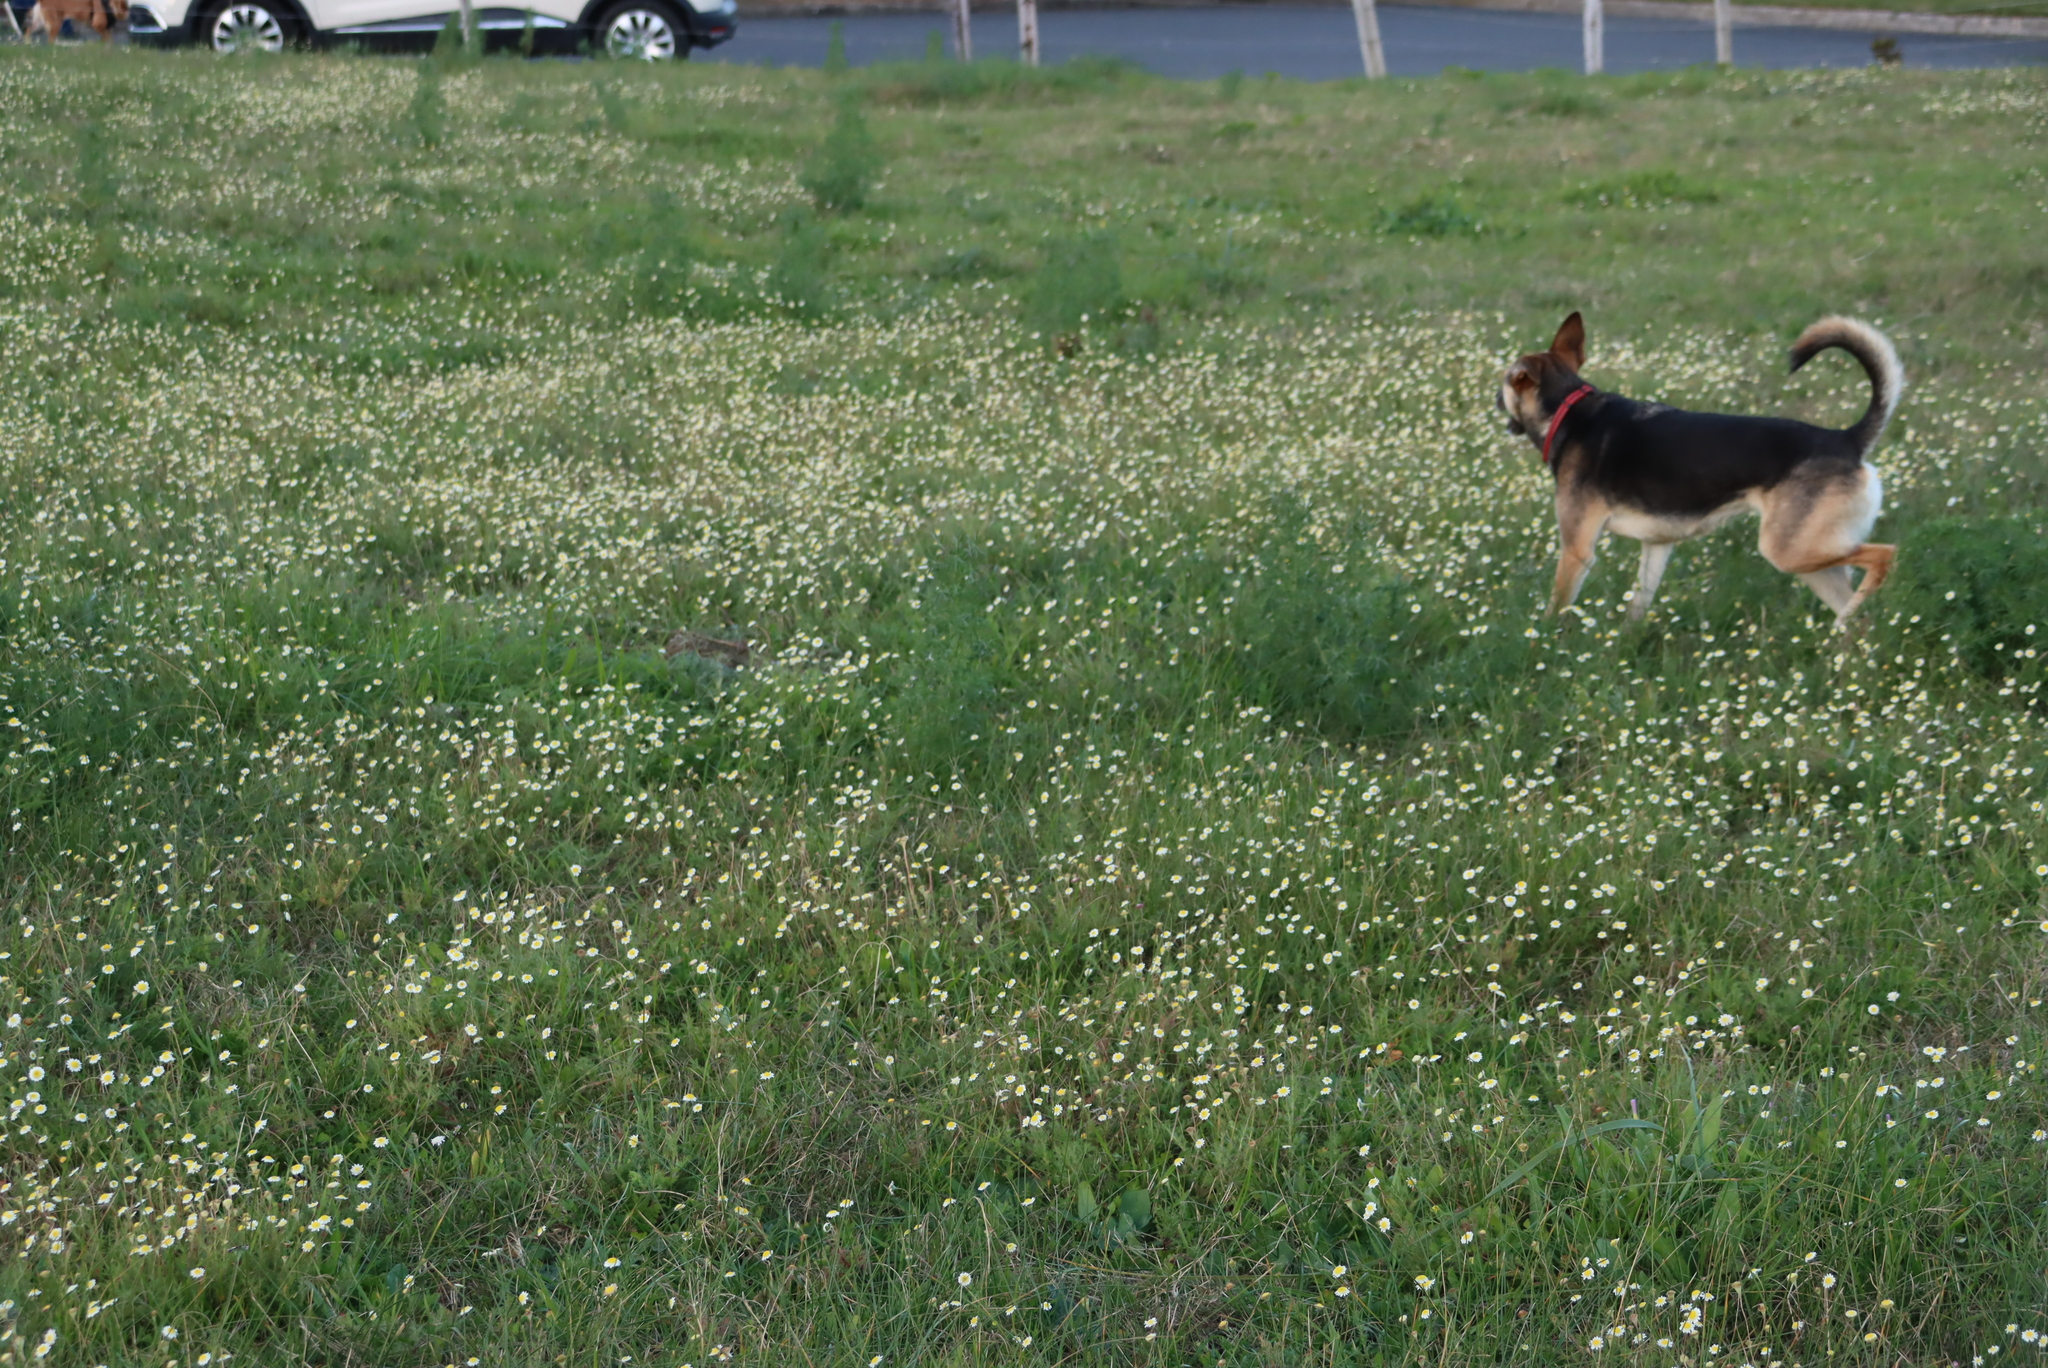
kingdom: Plantae
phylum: Tracheophyta
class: Magnoliopsida
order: Asterales
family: Asteraceae
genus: Cotula
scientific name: Cotula turbinata
